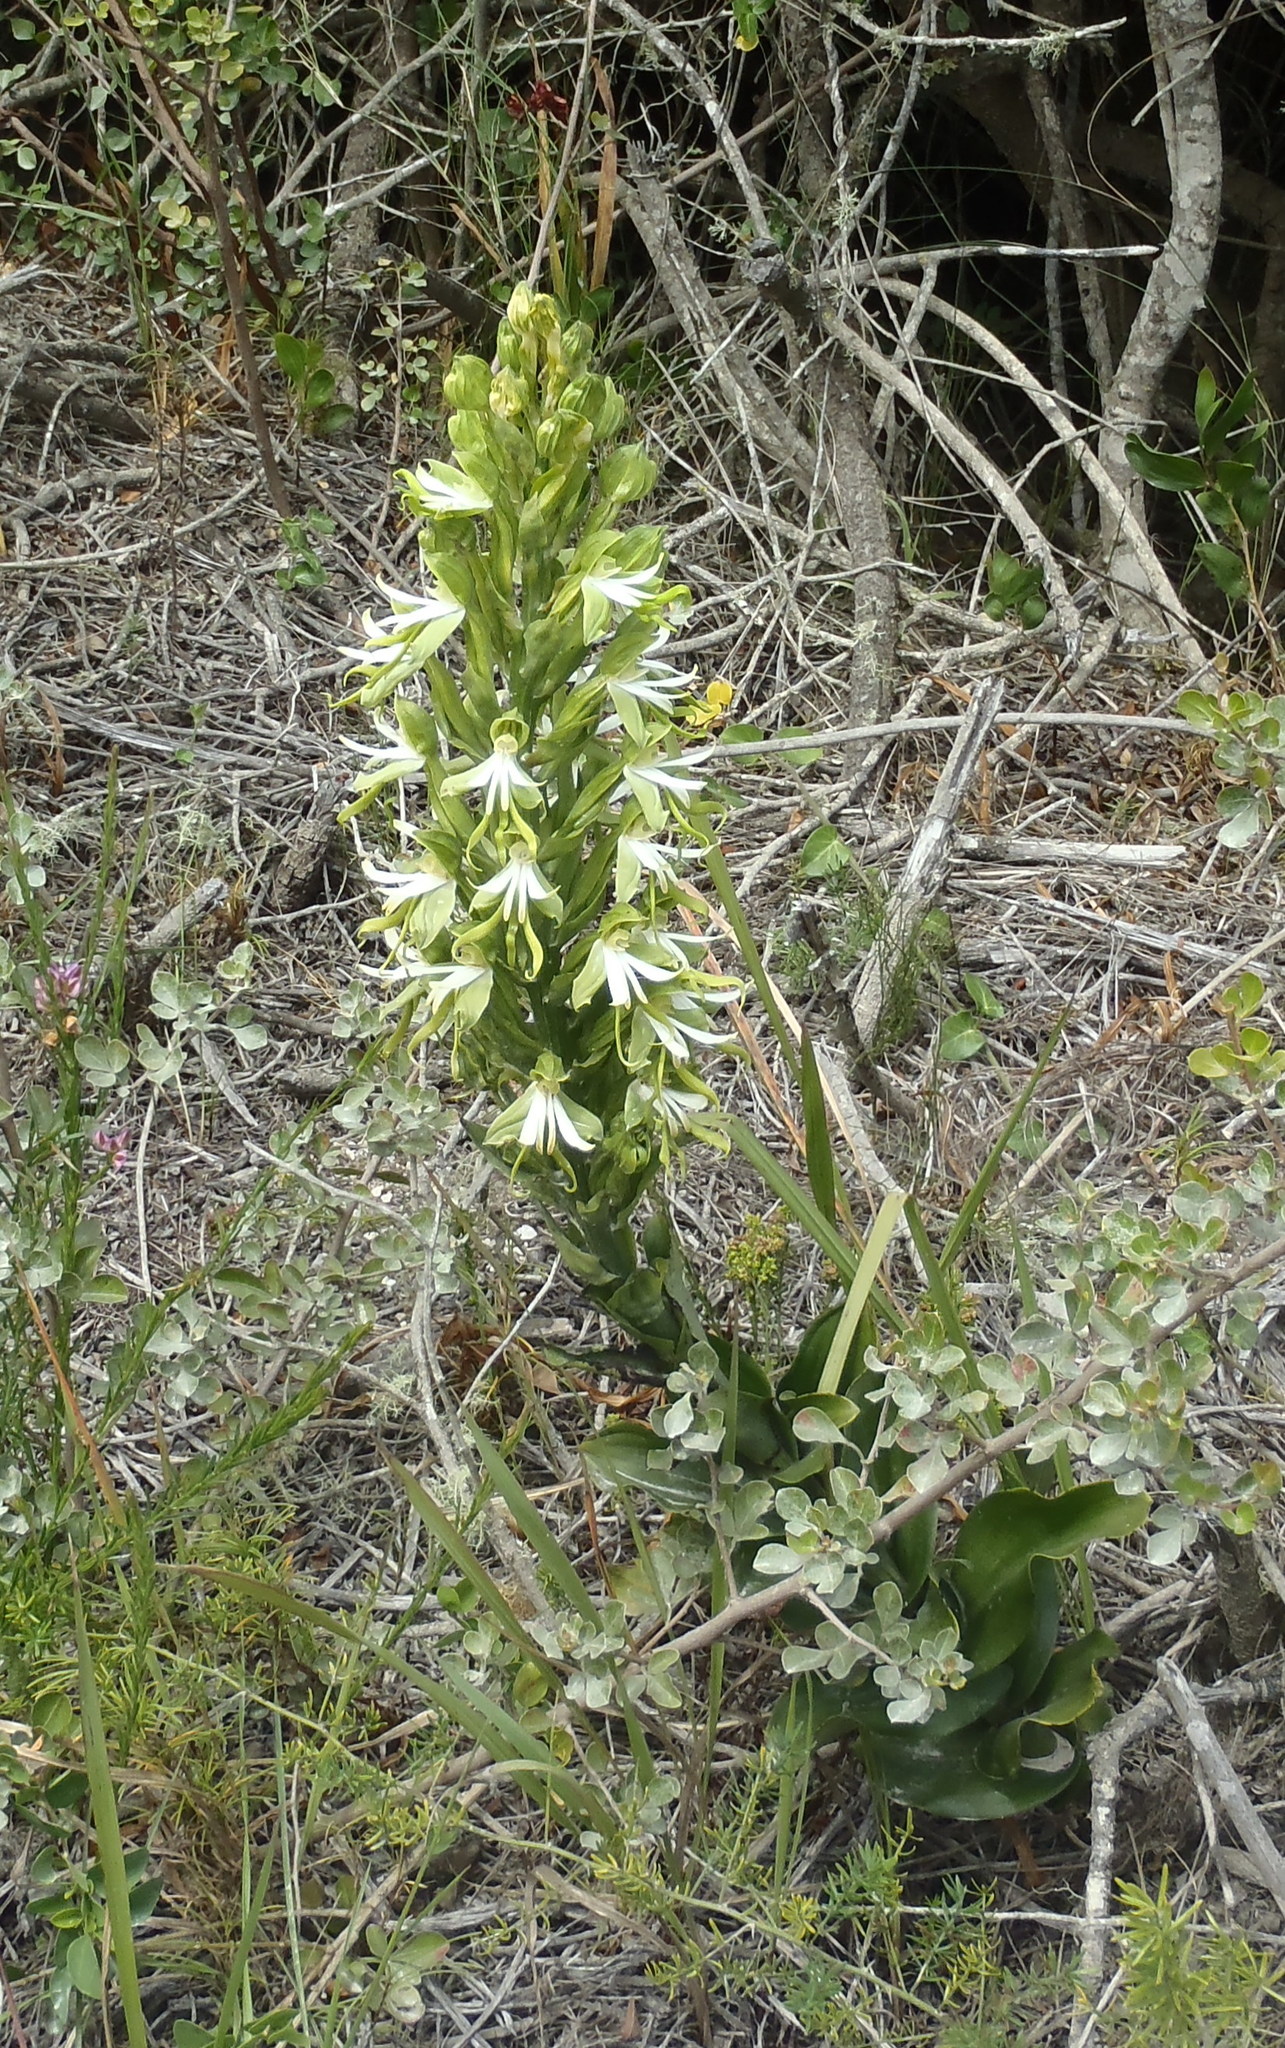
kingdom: Plantae
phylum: Tracheophyta
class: Liliopsida
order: Asparagales
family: Orchidaceae
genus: Bonatea
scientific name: Bonatea speciosa
